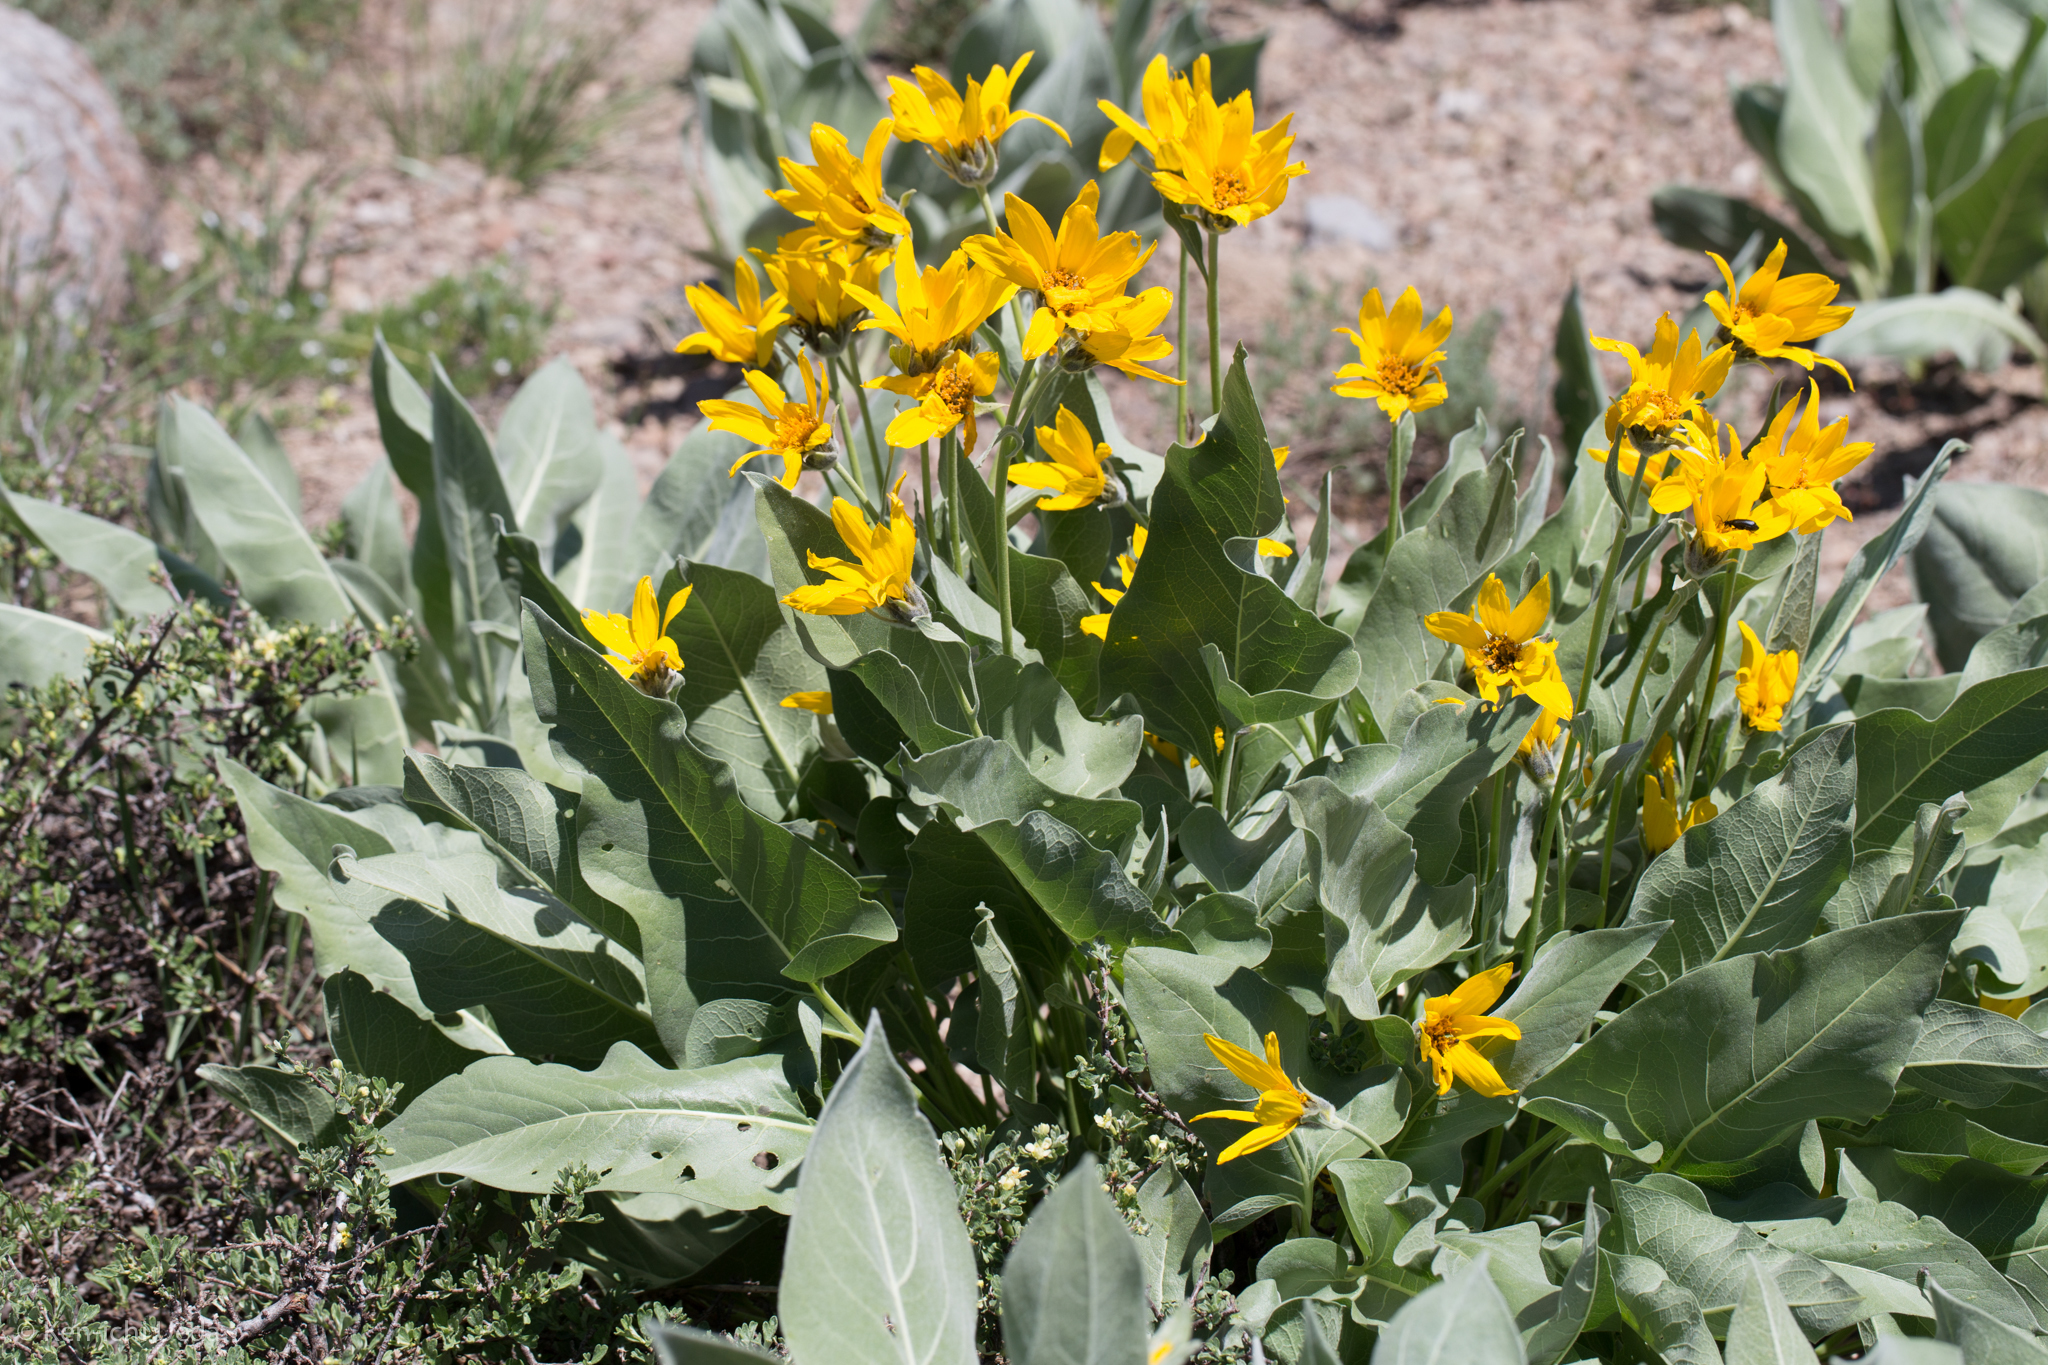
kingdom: Plantae
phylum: Tracheophyta
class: Magnoliopsida
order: Asterales
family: Asteraceae
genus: Wyethia
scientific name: Wyethia sagittata
